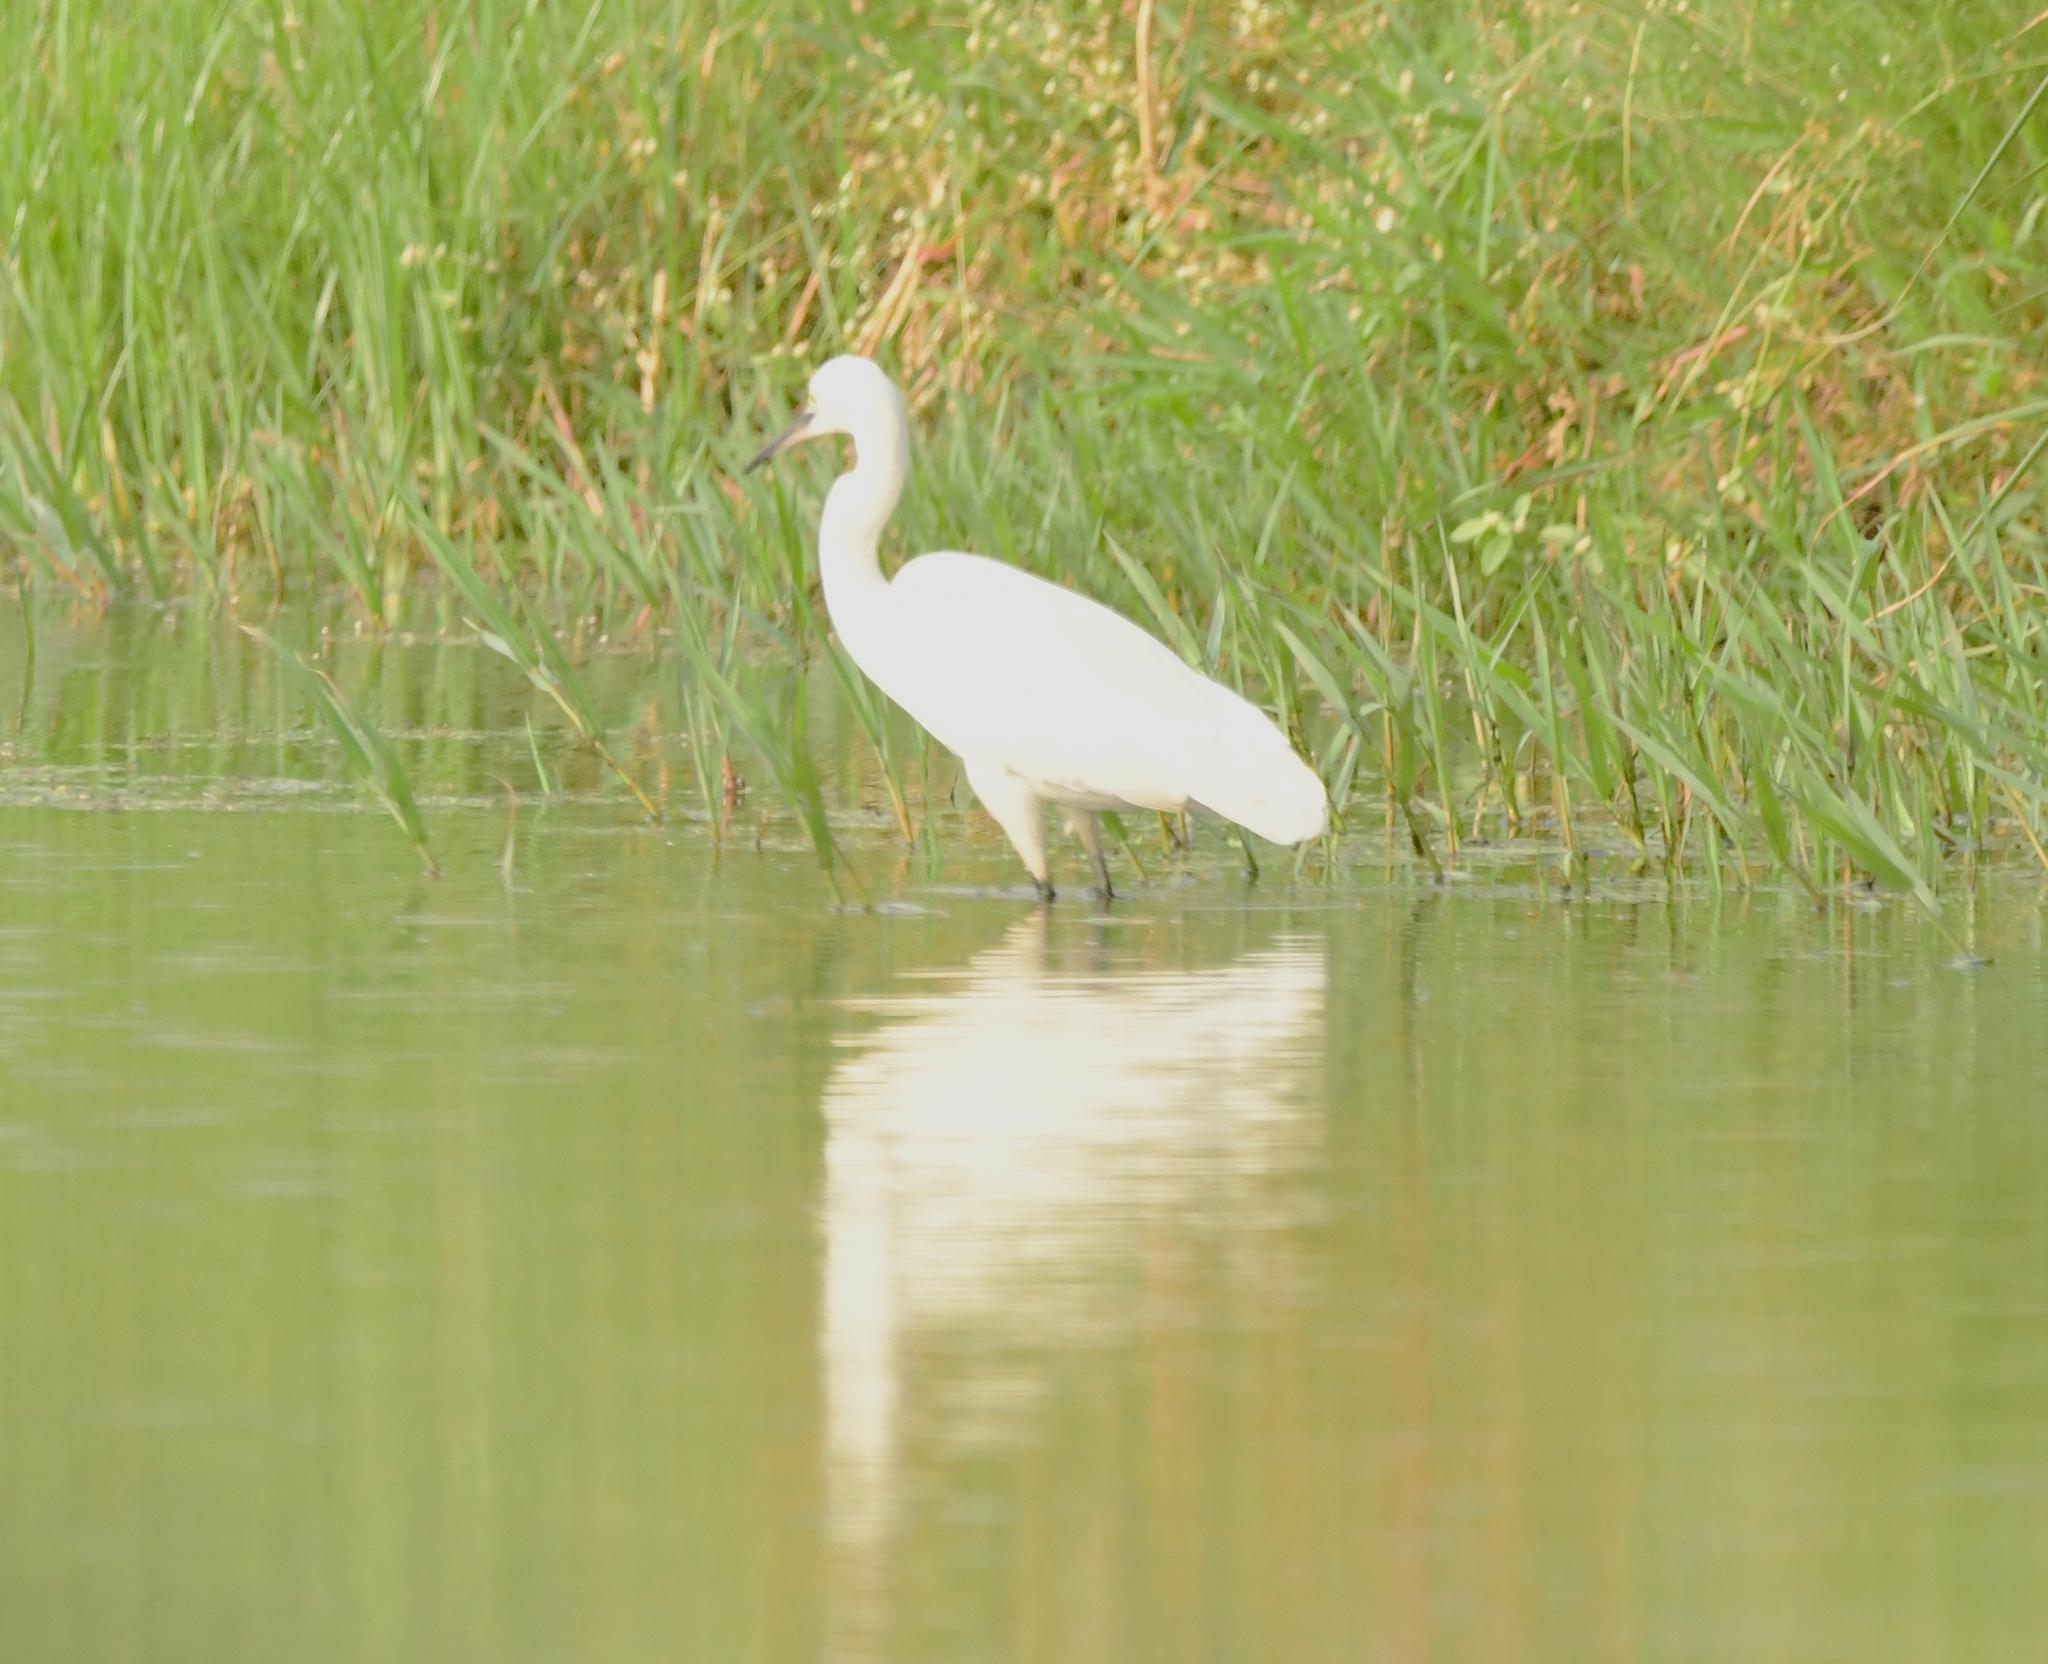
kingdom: Animalia
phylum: Chordata
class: Aves
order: Pelecaniformes
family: Ardeidae
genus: Egretta
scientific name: Egretta garzetta
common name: Little egret
